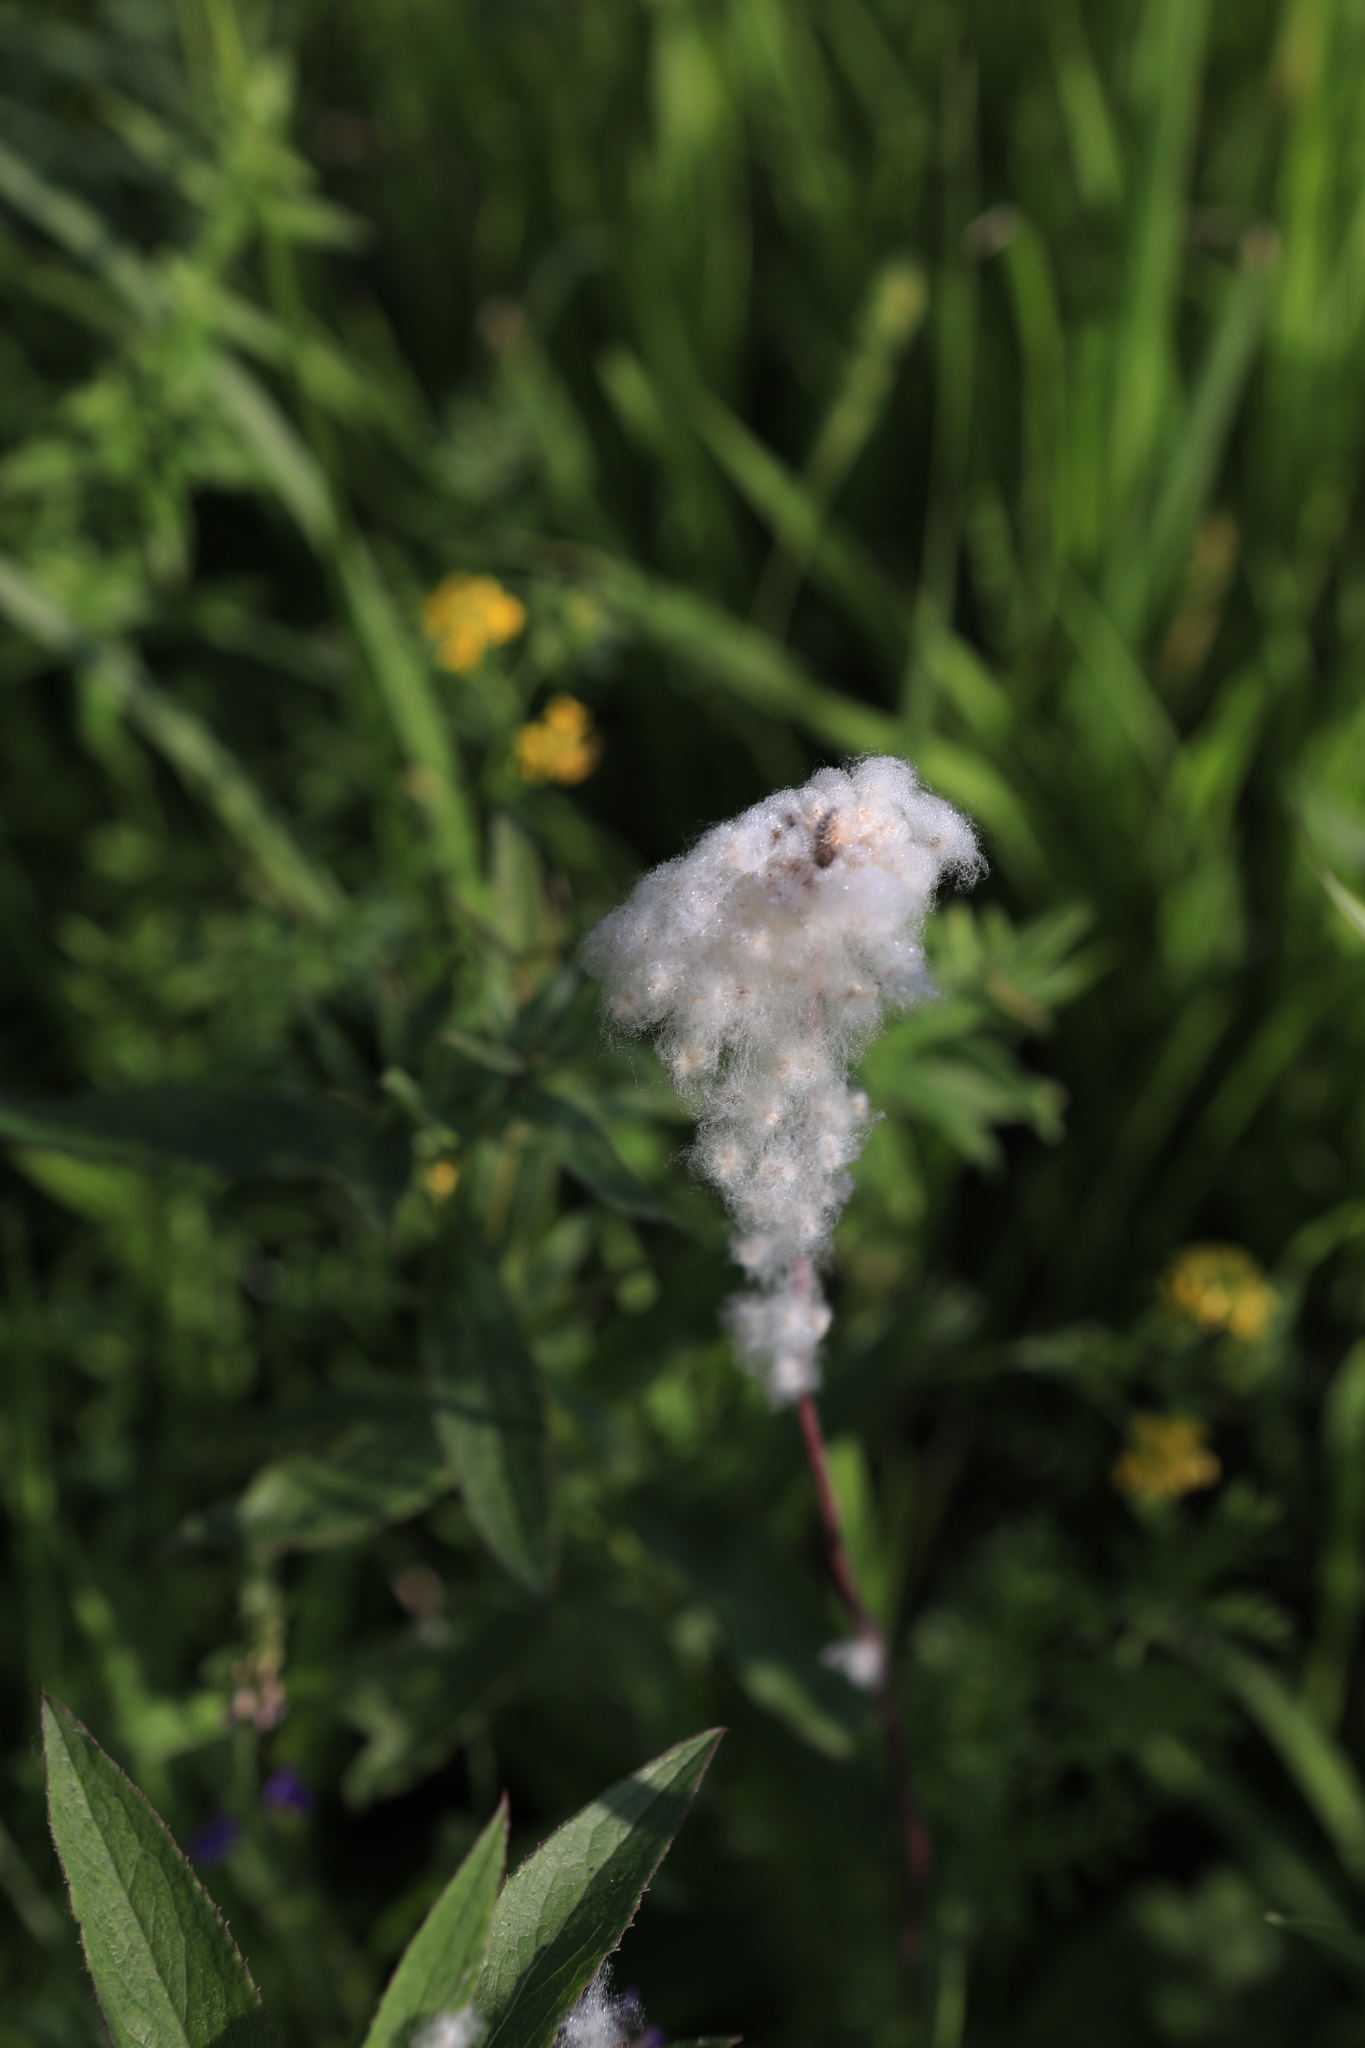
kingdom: Plantae
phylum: Tracheophyta
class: Magnoliopsida
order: Ranunculales
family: Ranunculaceae
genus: Anemone
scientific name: Anemone sylvestris
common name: Snowdrop anemone
